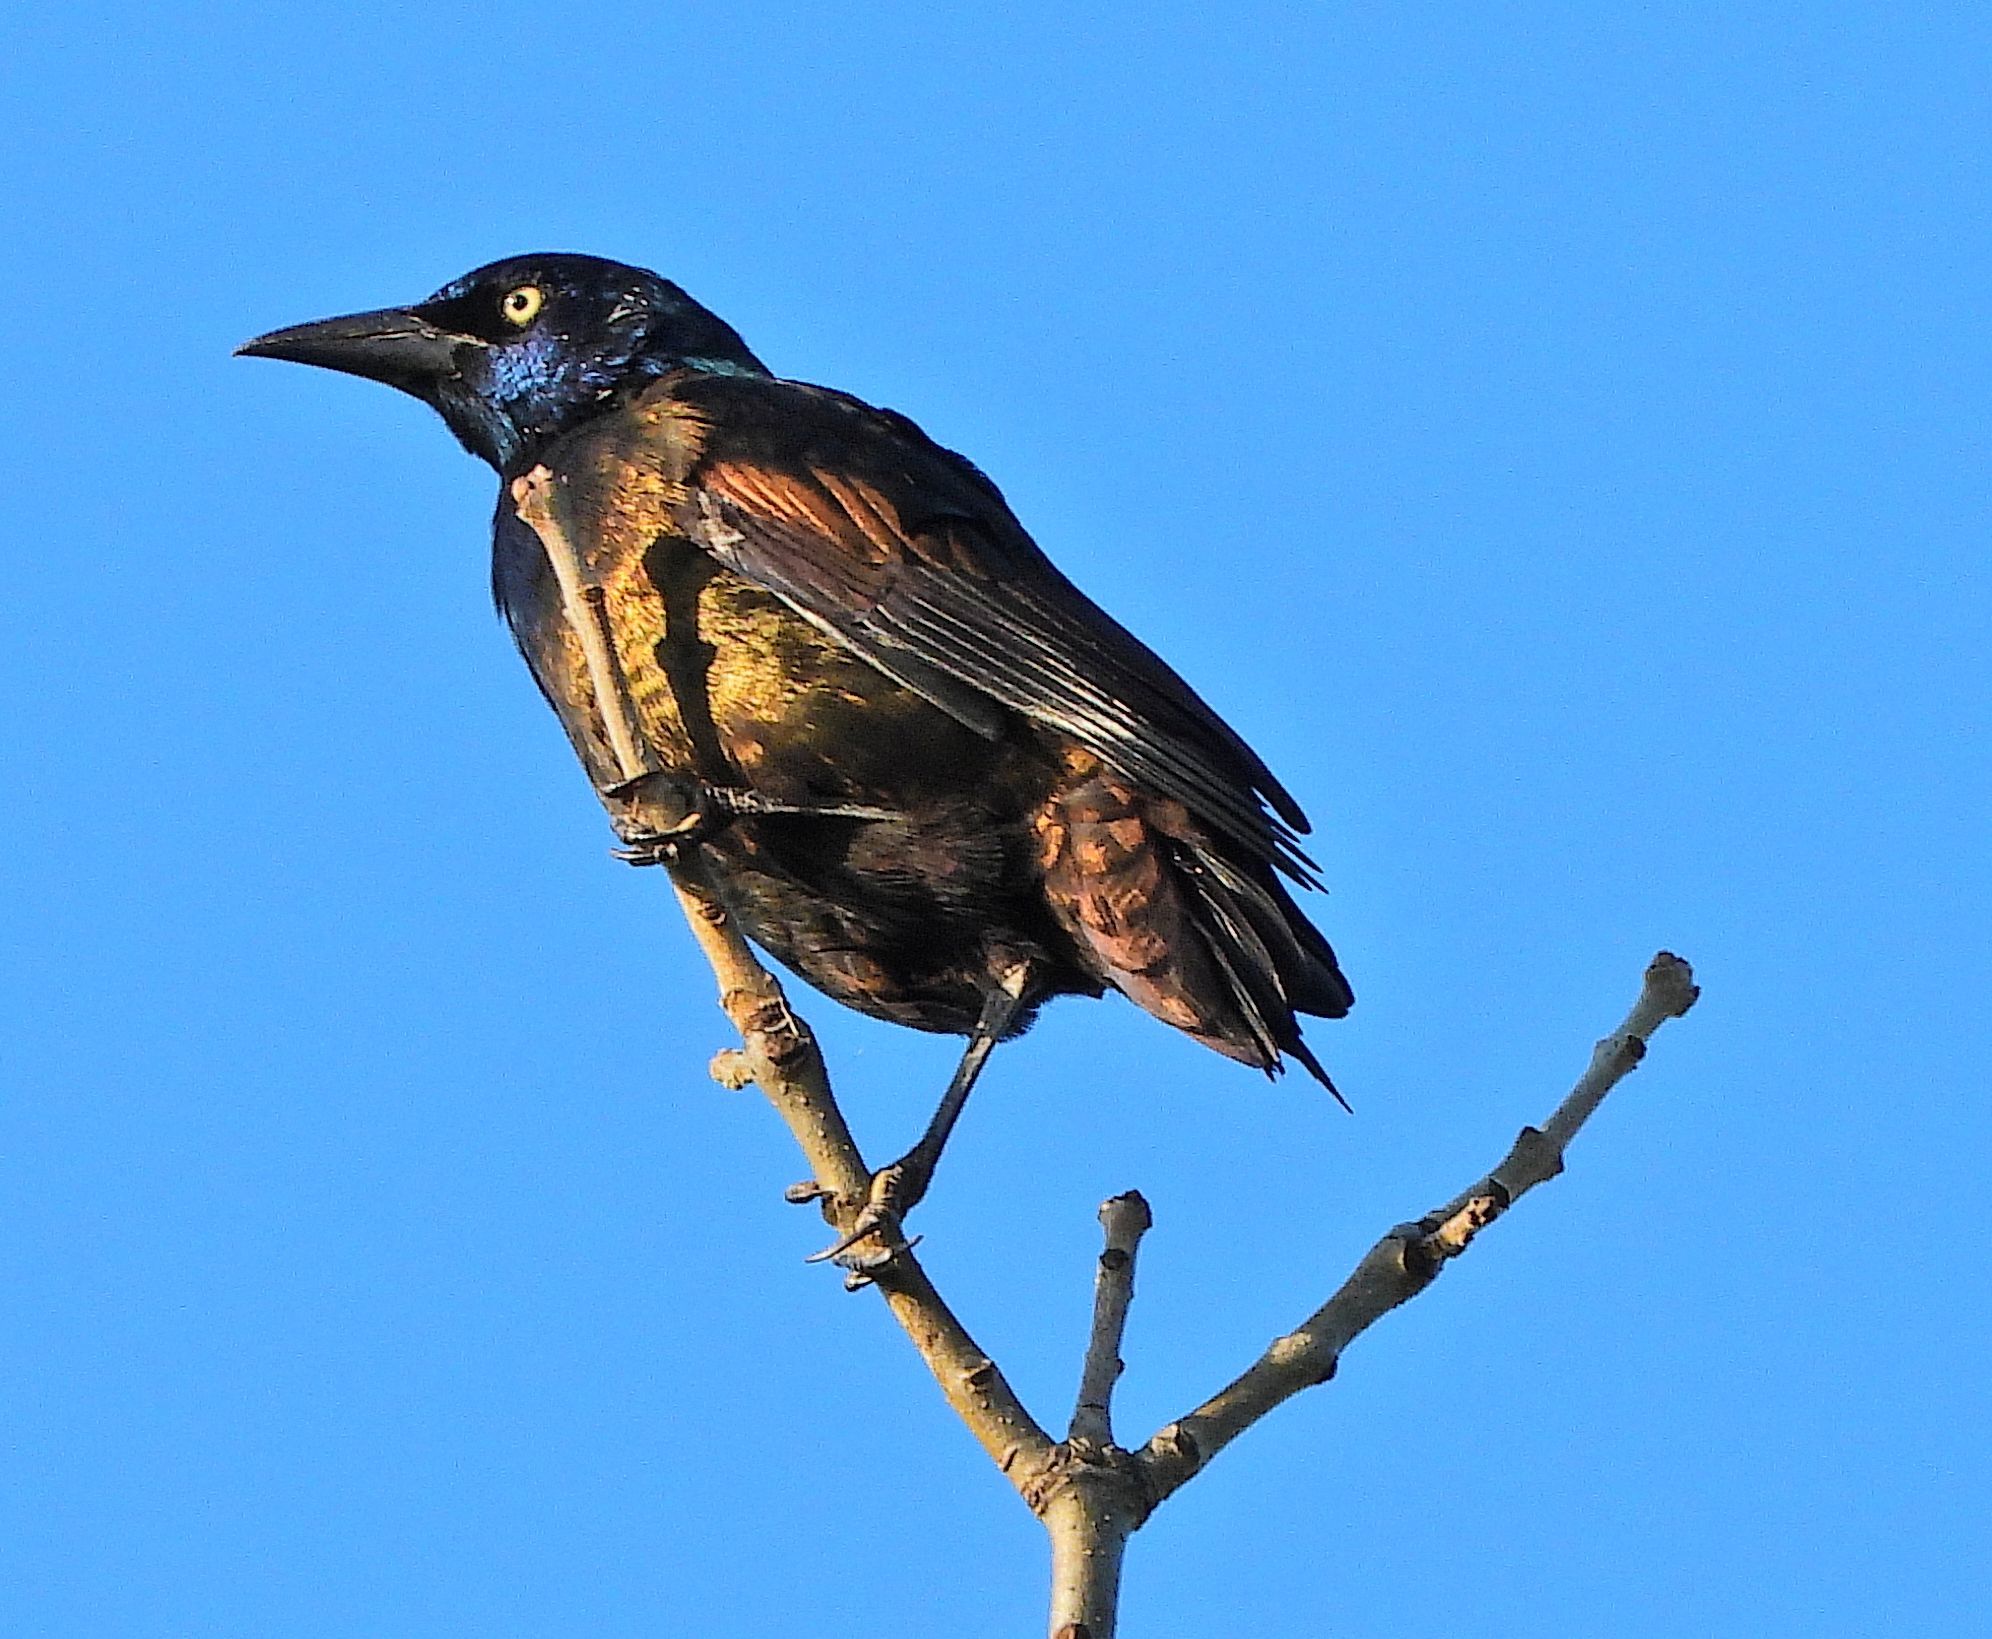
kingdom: Animalia
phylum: Chordata
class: Aves
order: Passeriformes
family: Icteridae
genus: Quiscalus
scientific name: Quiscalus quiscula
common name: Common grackle
